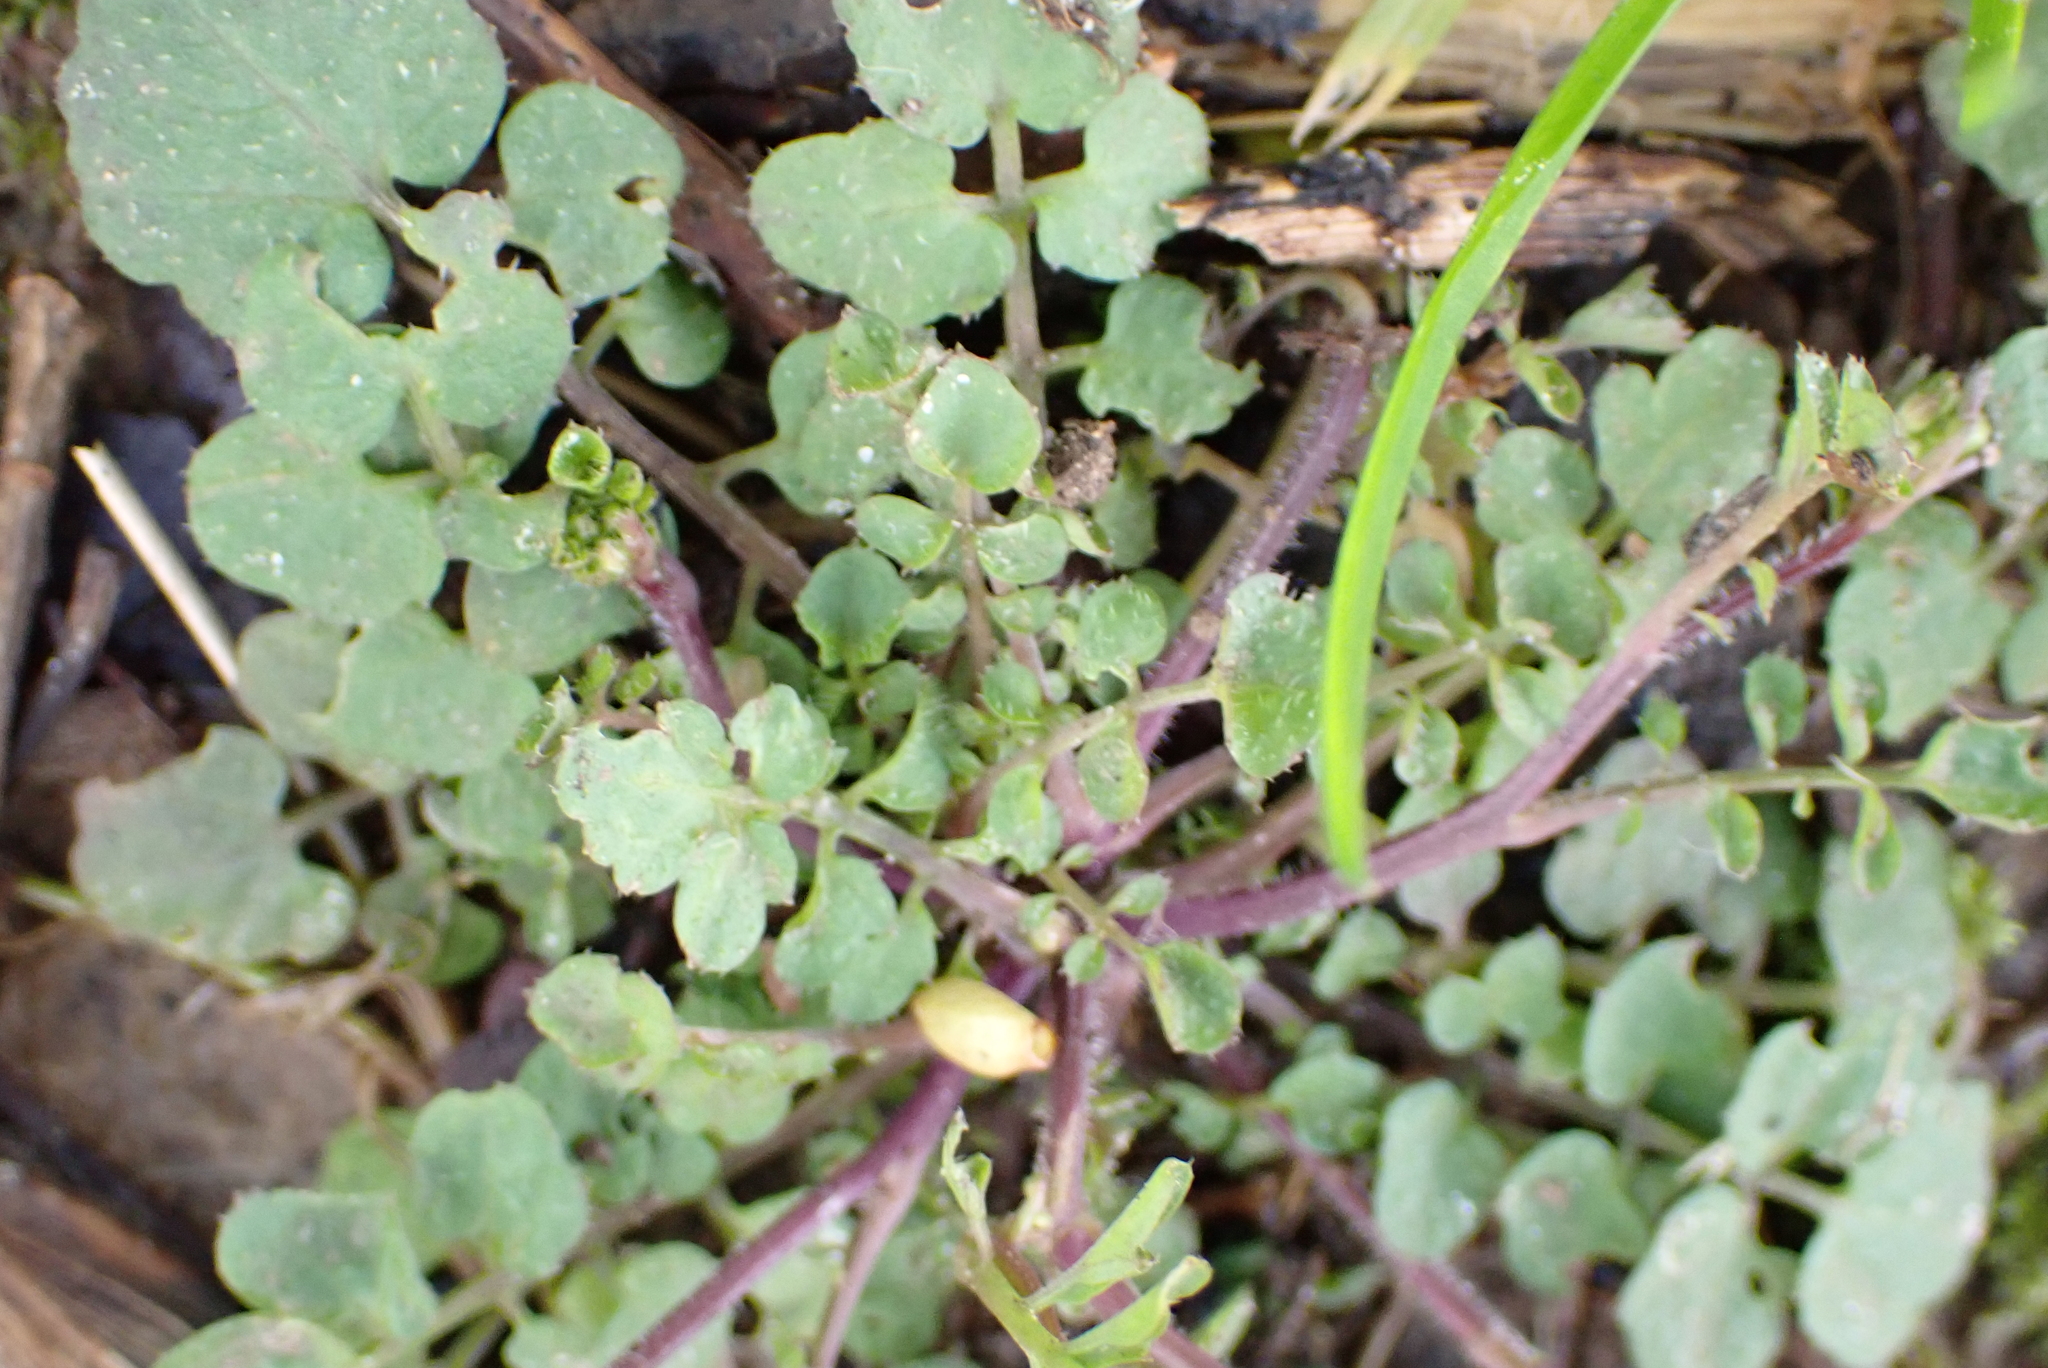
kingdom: Plantae
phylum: Tracheophyta
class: Magnoliopsida
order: Brassicales
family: Brassicaceae
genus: Cardamine
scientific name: Cardamine hirsuta
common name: Hairy bittercress
